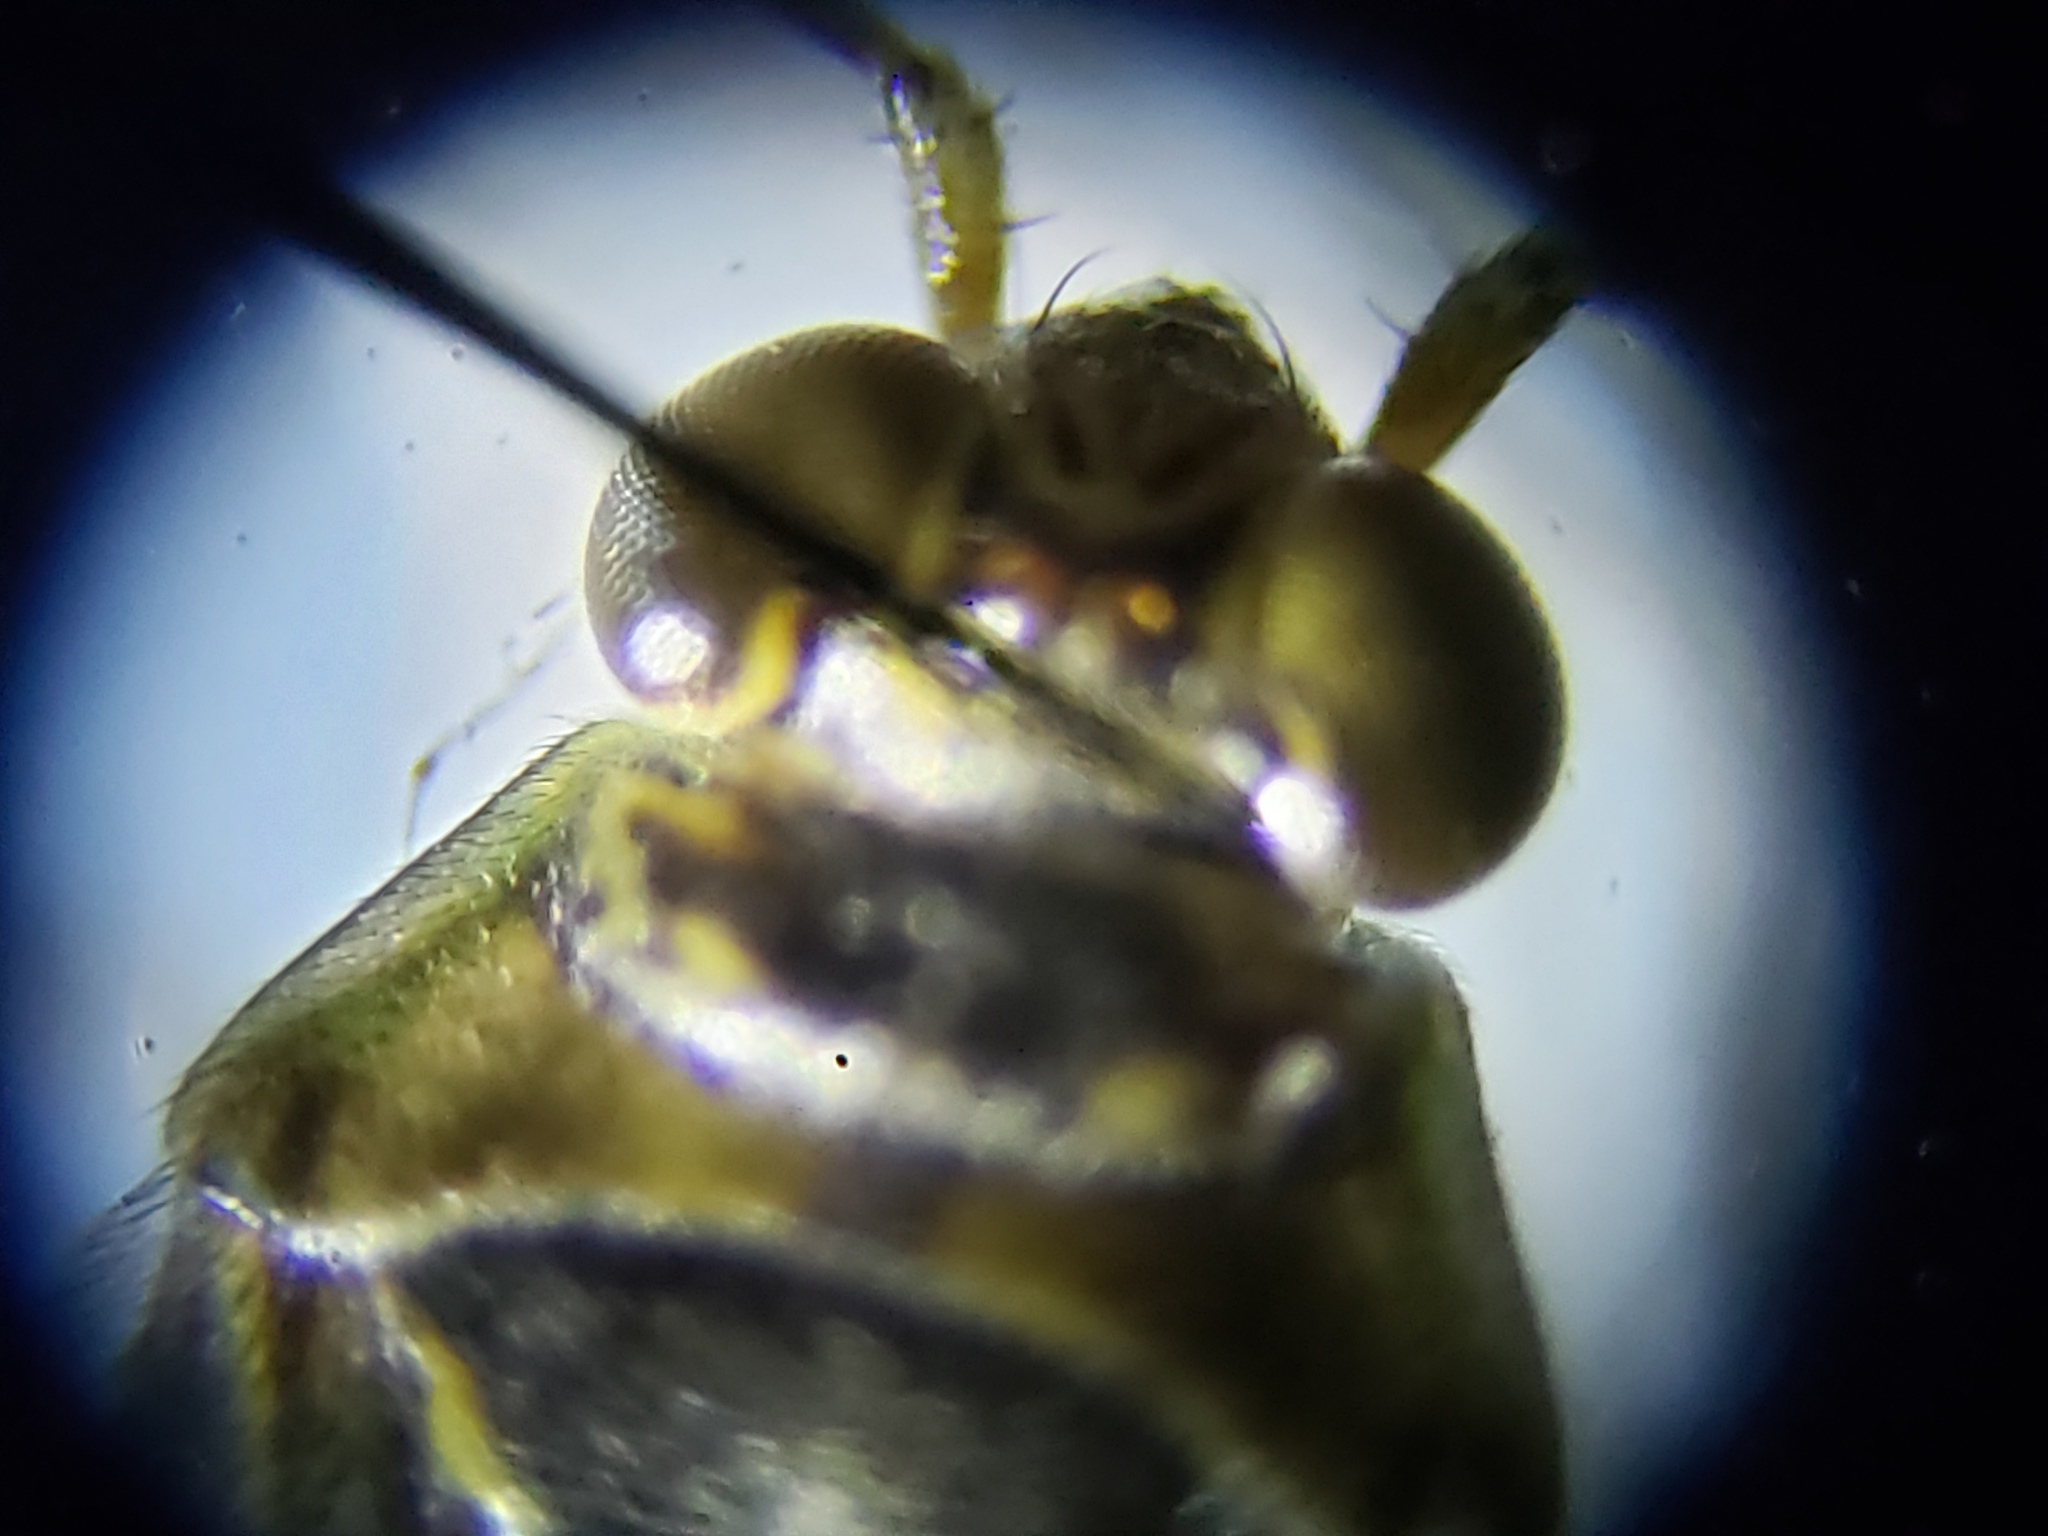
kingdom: Animalia
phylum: Arthropoda
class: Insecta
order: Hemiptera
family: Saldidae
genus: Pentacora
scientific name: Pentacora sphacelata
